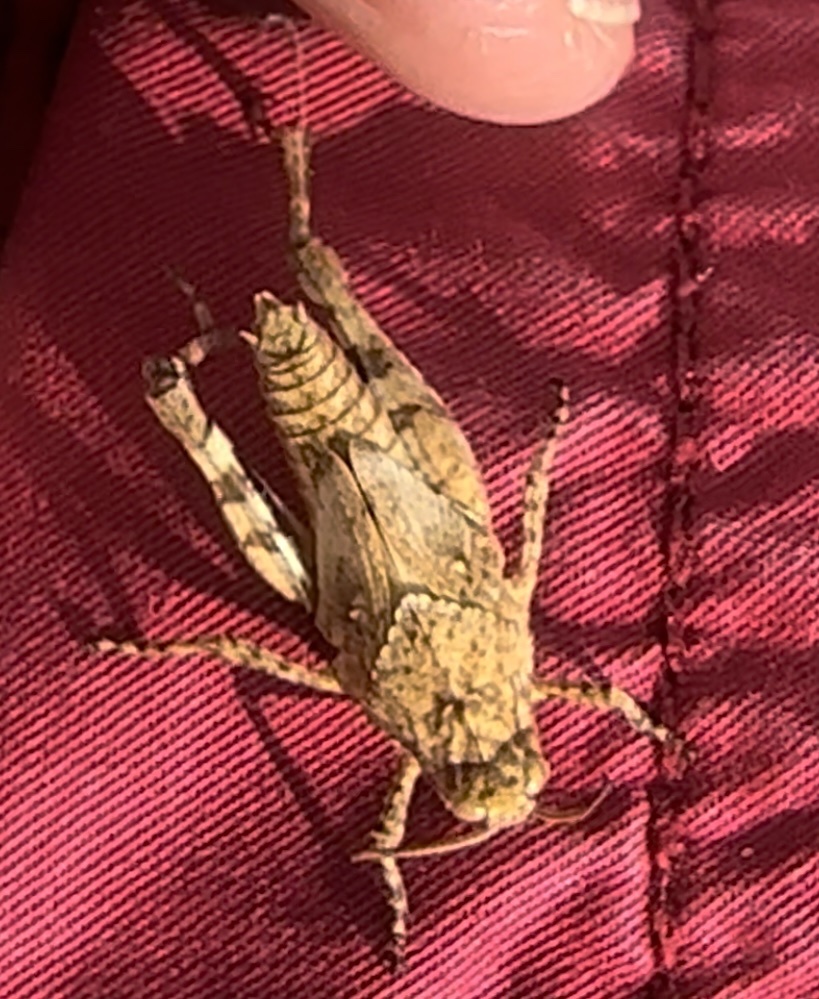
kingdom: Animalia
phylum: Arthropoda
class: Insecta
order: Orthoptera
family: Acrididae
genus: Oedipoda
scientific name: Oedipoda caerulescens
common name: Blue-winged grasshopper
